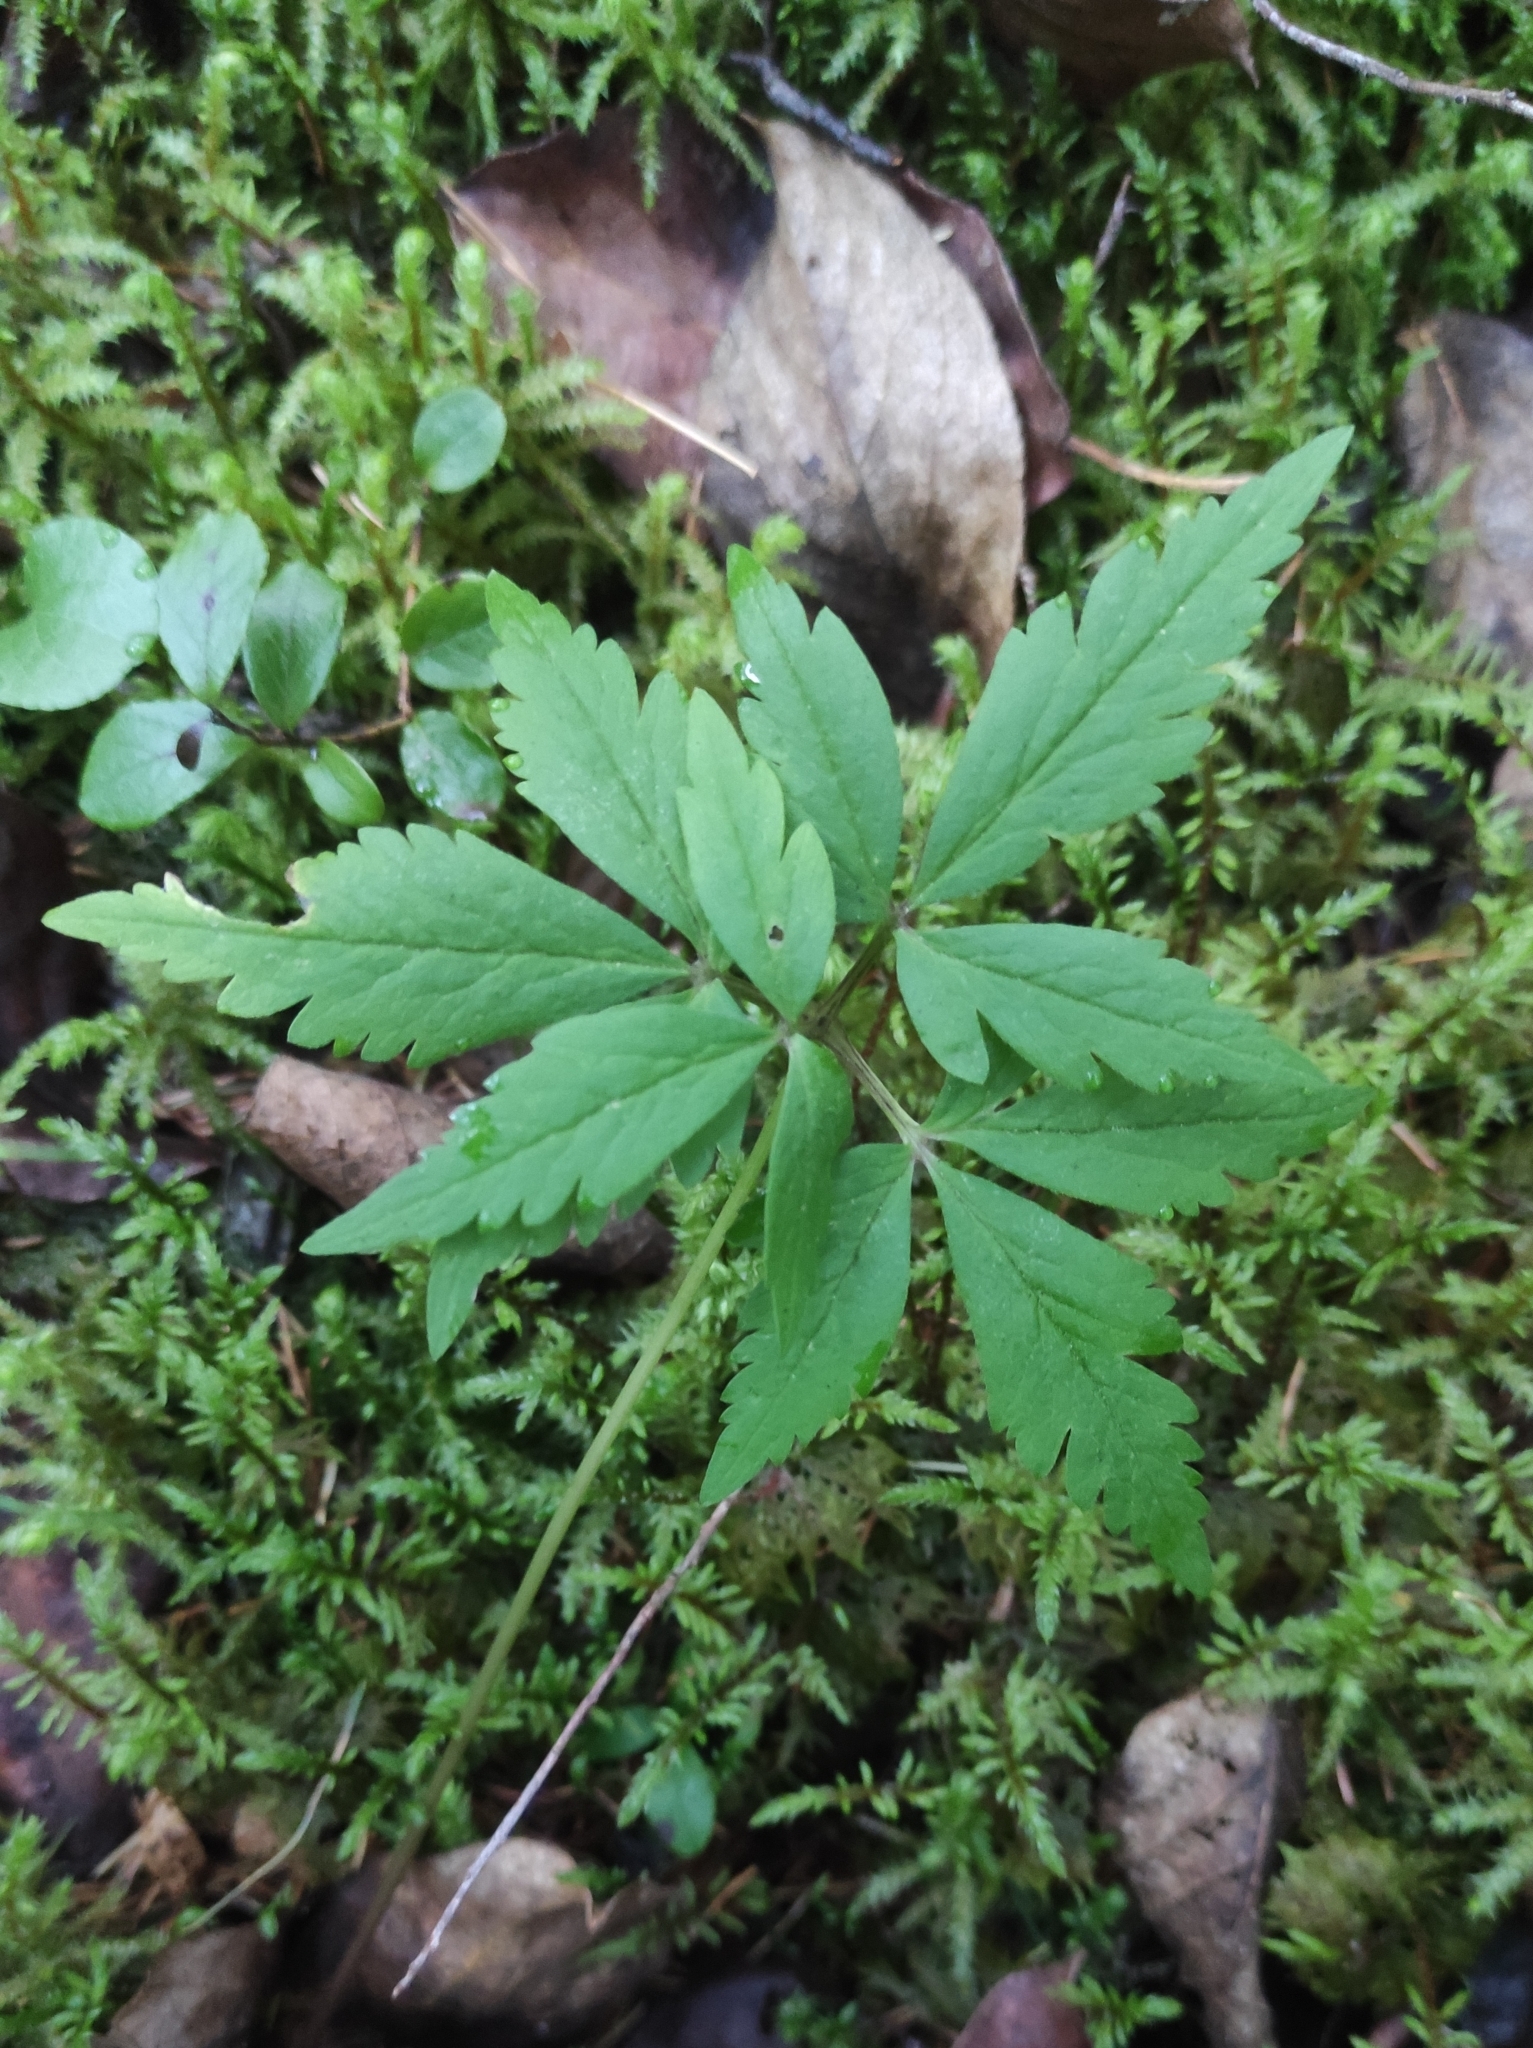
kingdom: Plantae
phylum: Tracheophyta
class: Magnoliopsida
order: Ranunculales
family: Ranunculaceae
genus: Anemone
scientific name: Anemone reflexa
